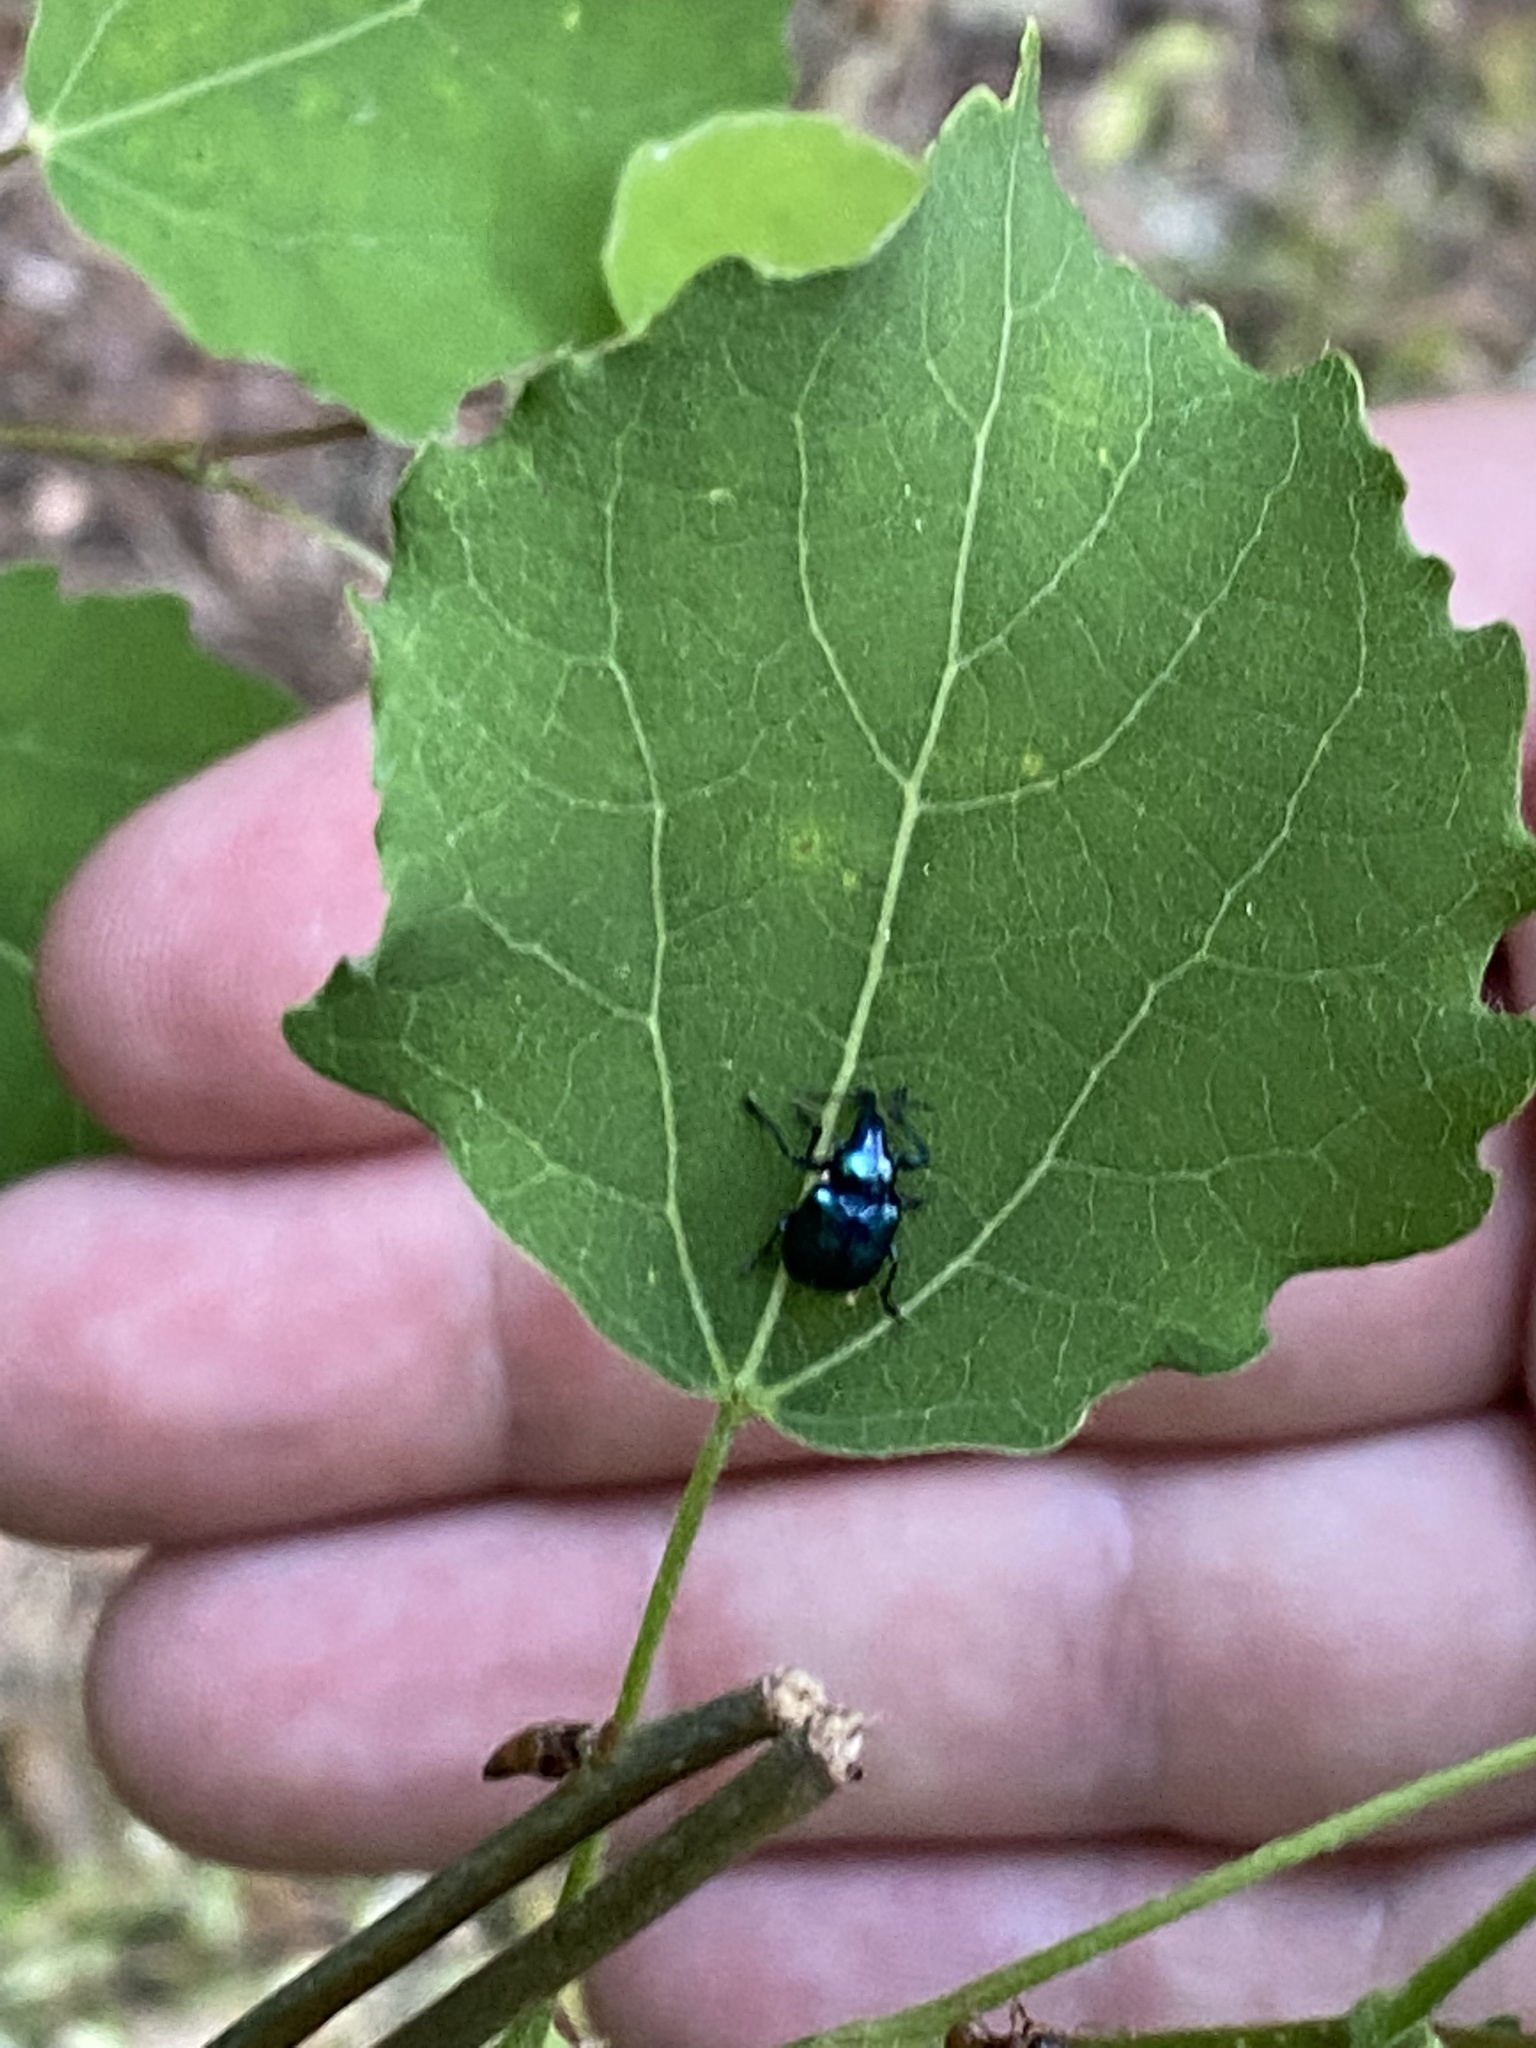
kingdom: Animalia
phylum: Arthropoda
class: Insecta
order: Coleoptera
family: Attelabidae
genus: Byctiscus
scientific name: Byctiscus betulae
